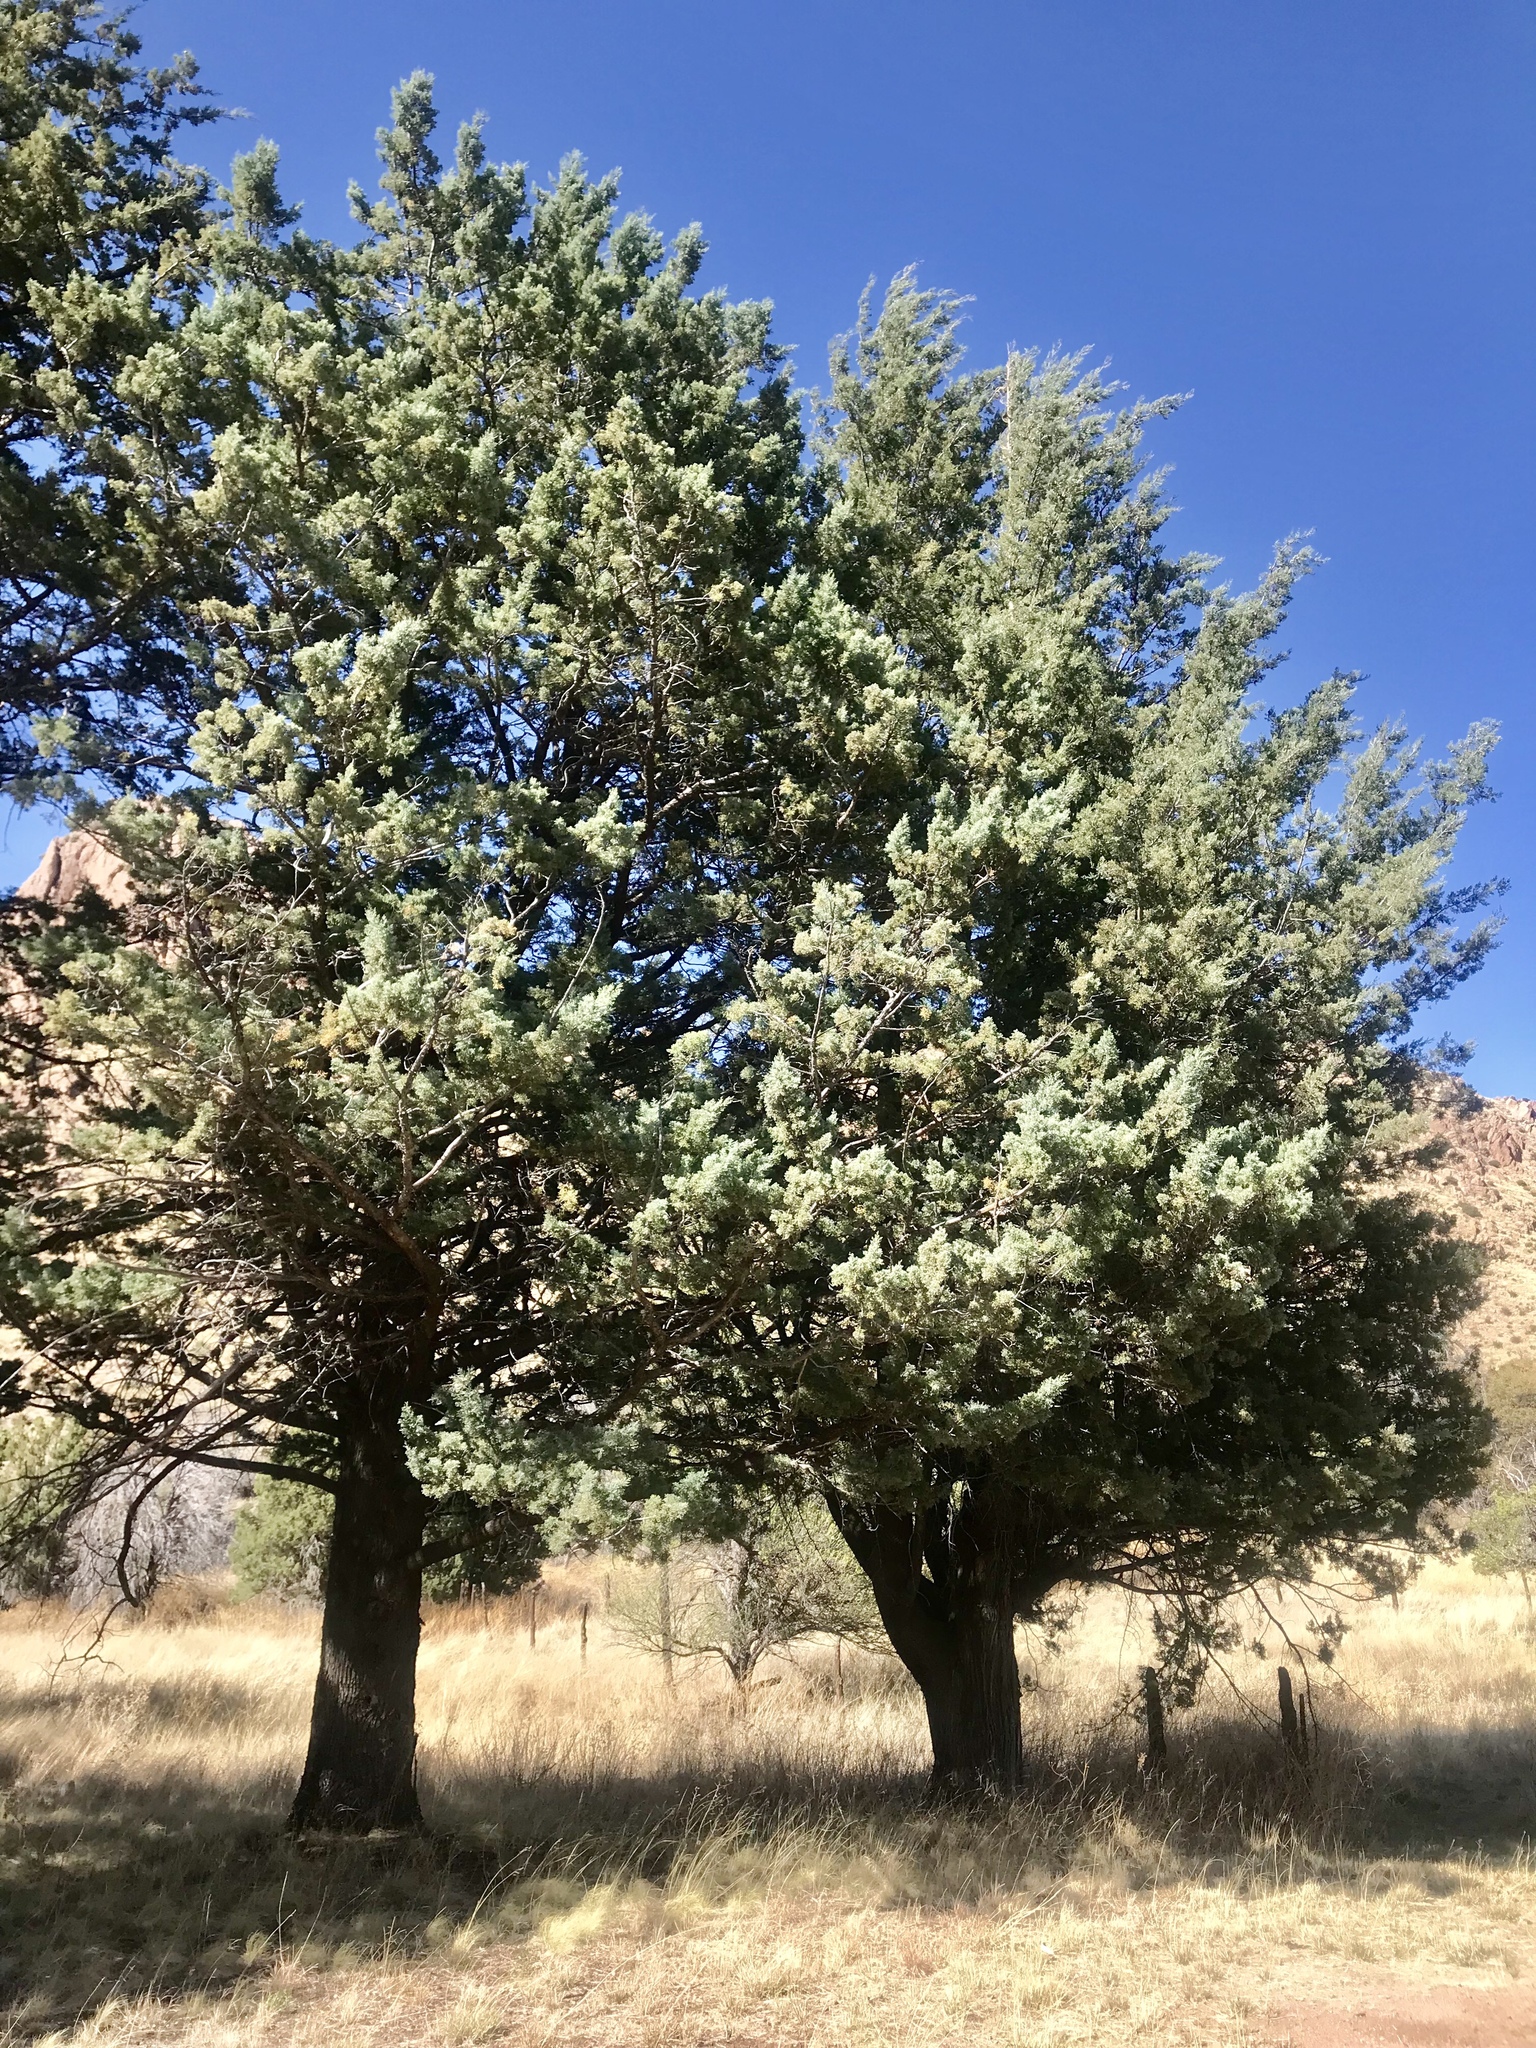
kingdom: Plantae
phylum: Tracheophyta
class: Pinopsida
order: Pinales
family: Cupressaceae
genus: Cupressus
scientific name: Cupressus arizonica
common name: Arizona cypress
